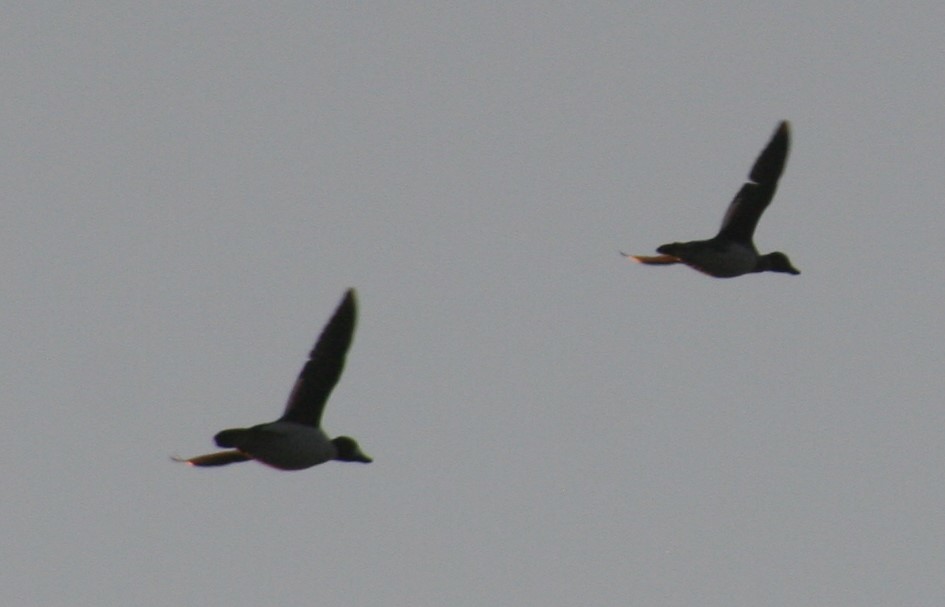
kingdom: Animalia
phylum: Chordata
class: Aves
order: Anseriformes
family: Anatidae
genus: Bucephala
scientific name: Bucephala clangula
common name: Common goldeneye
